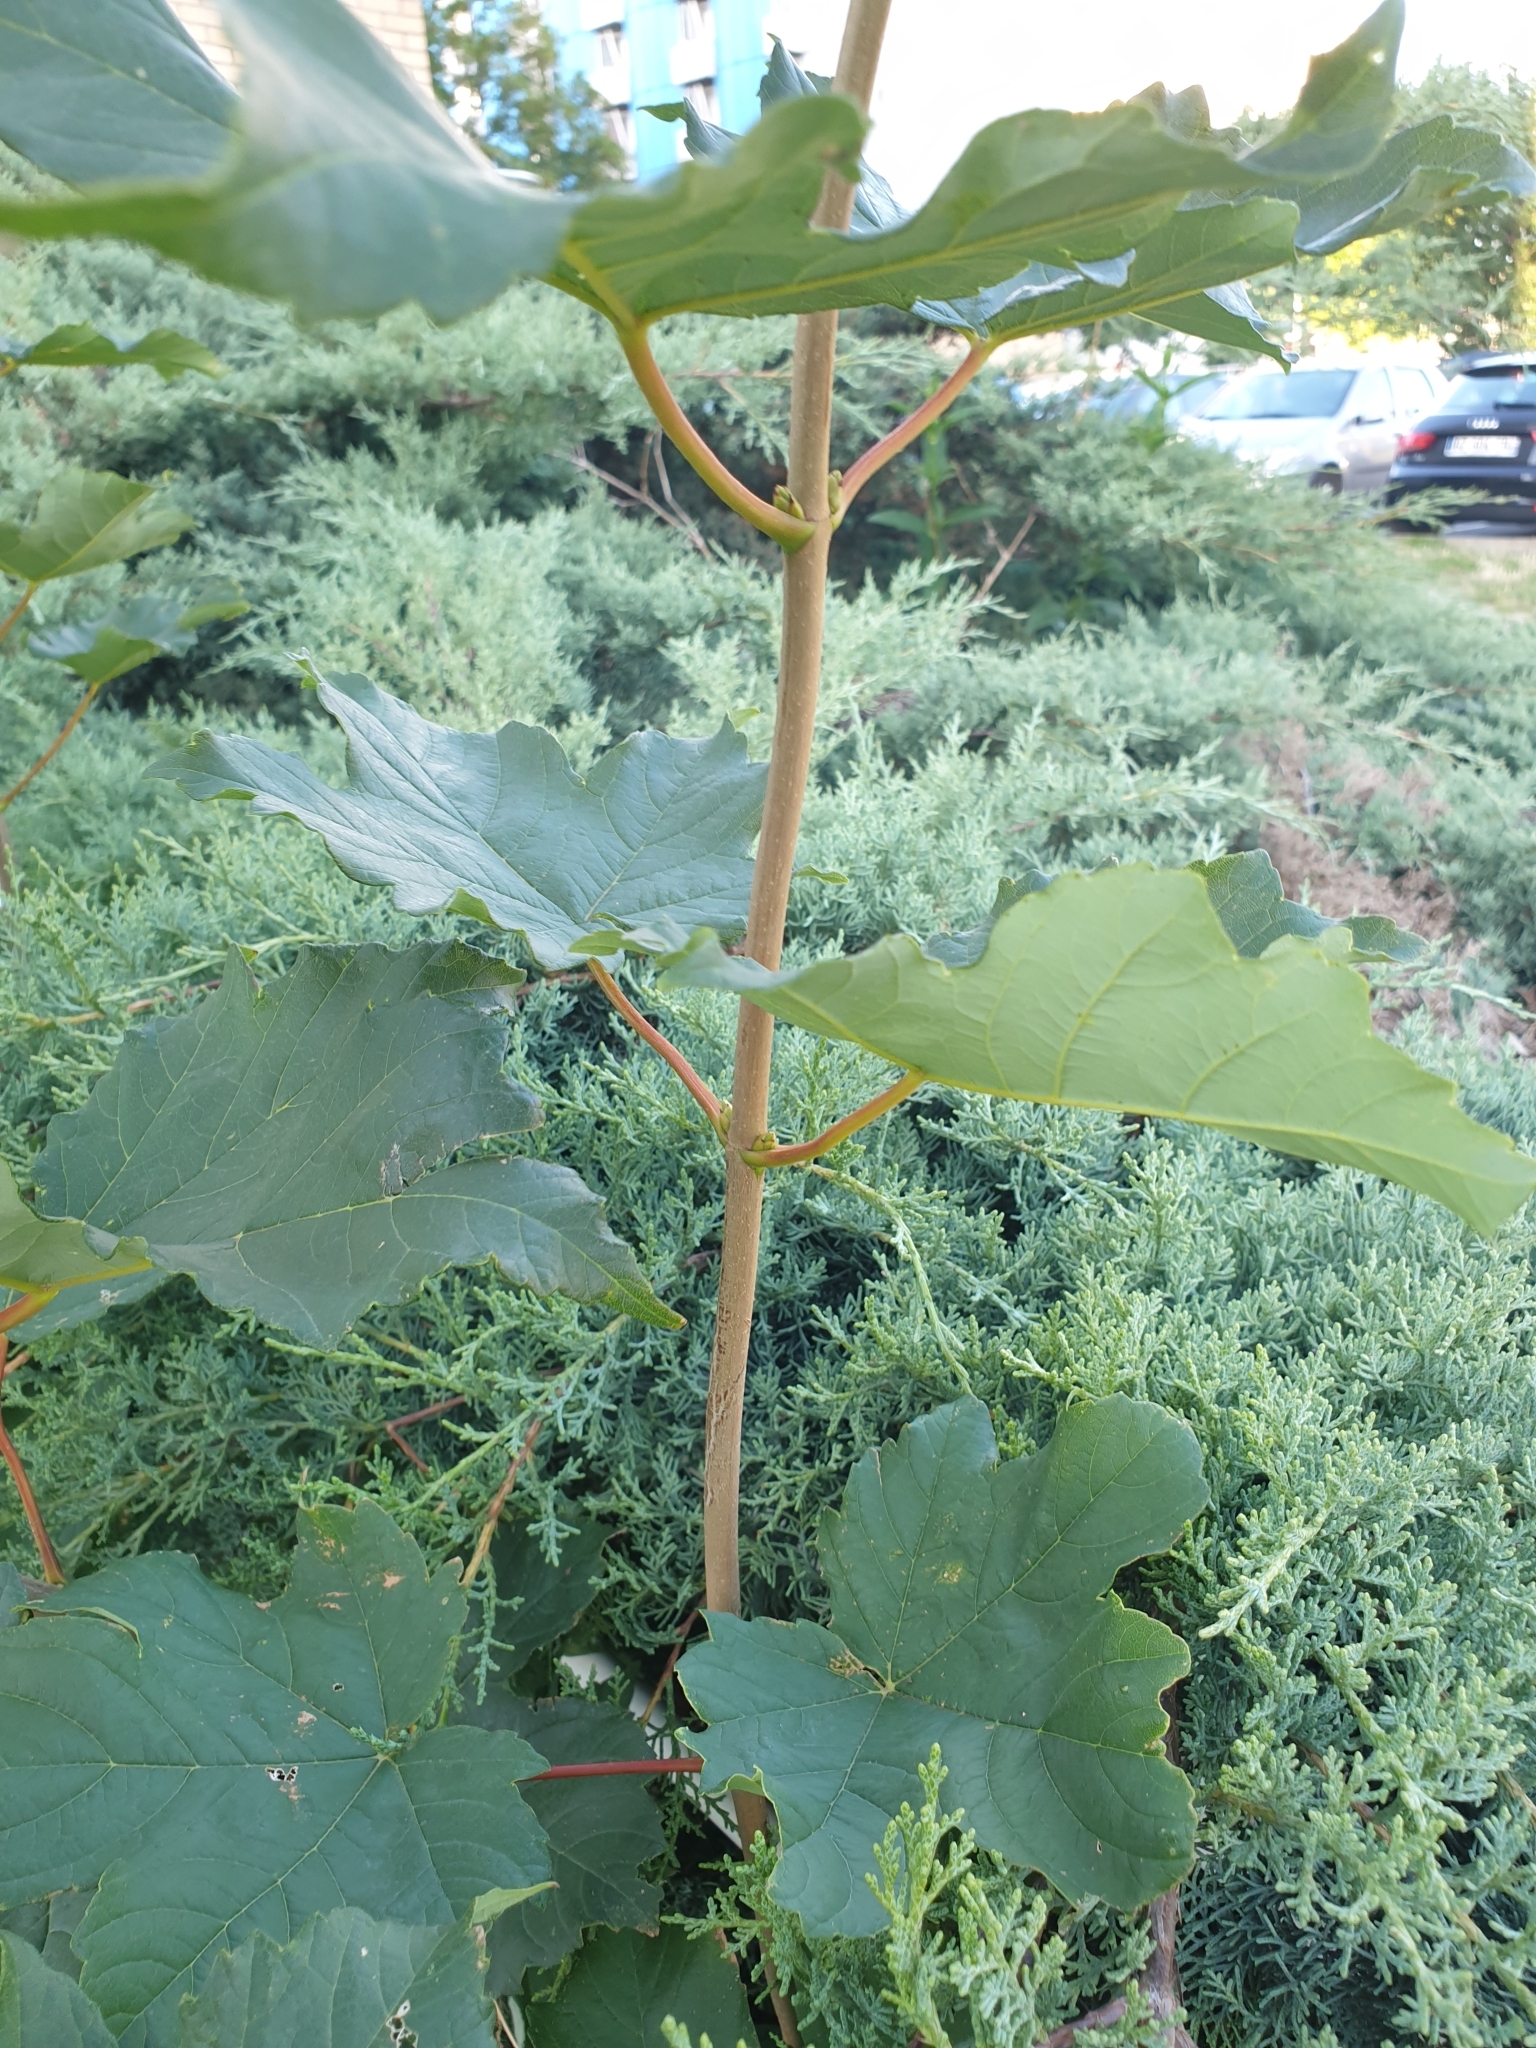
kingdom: Plantae
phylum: Tracheophyta
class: Magnoliopsida
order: Sapindales
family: Sapindaceae
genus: Acer
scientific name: Acer pseudoplatanus
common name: Sycamore
